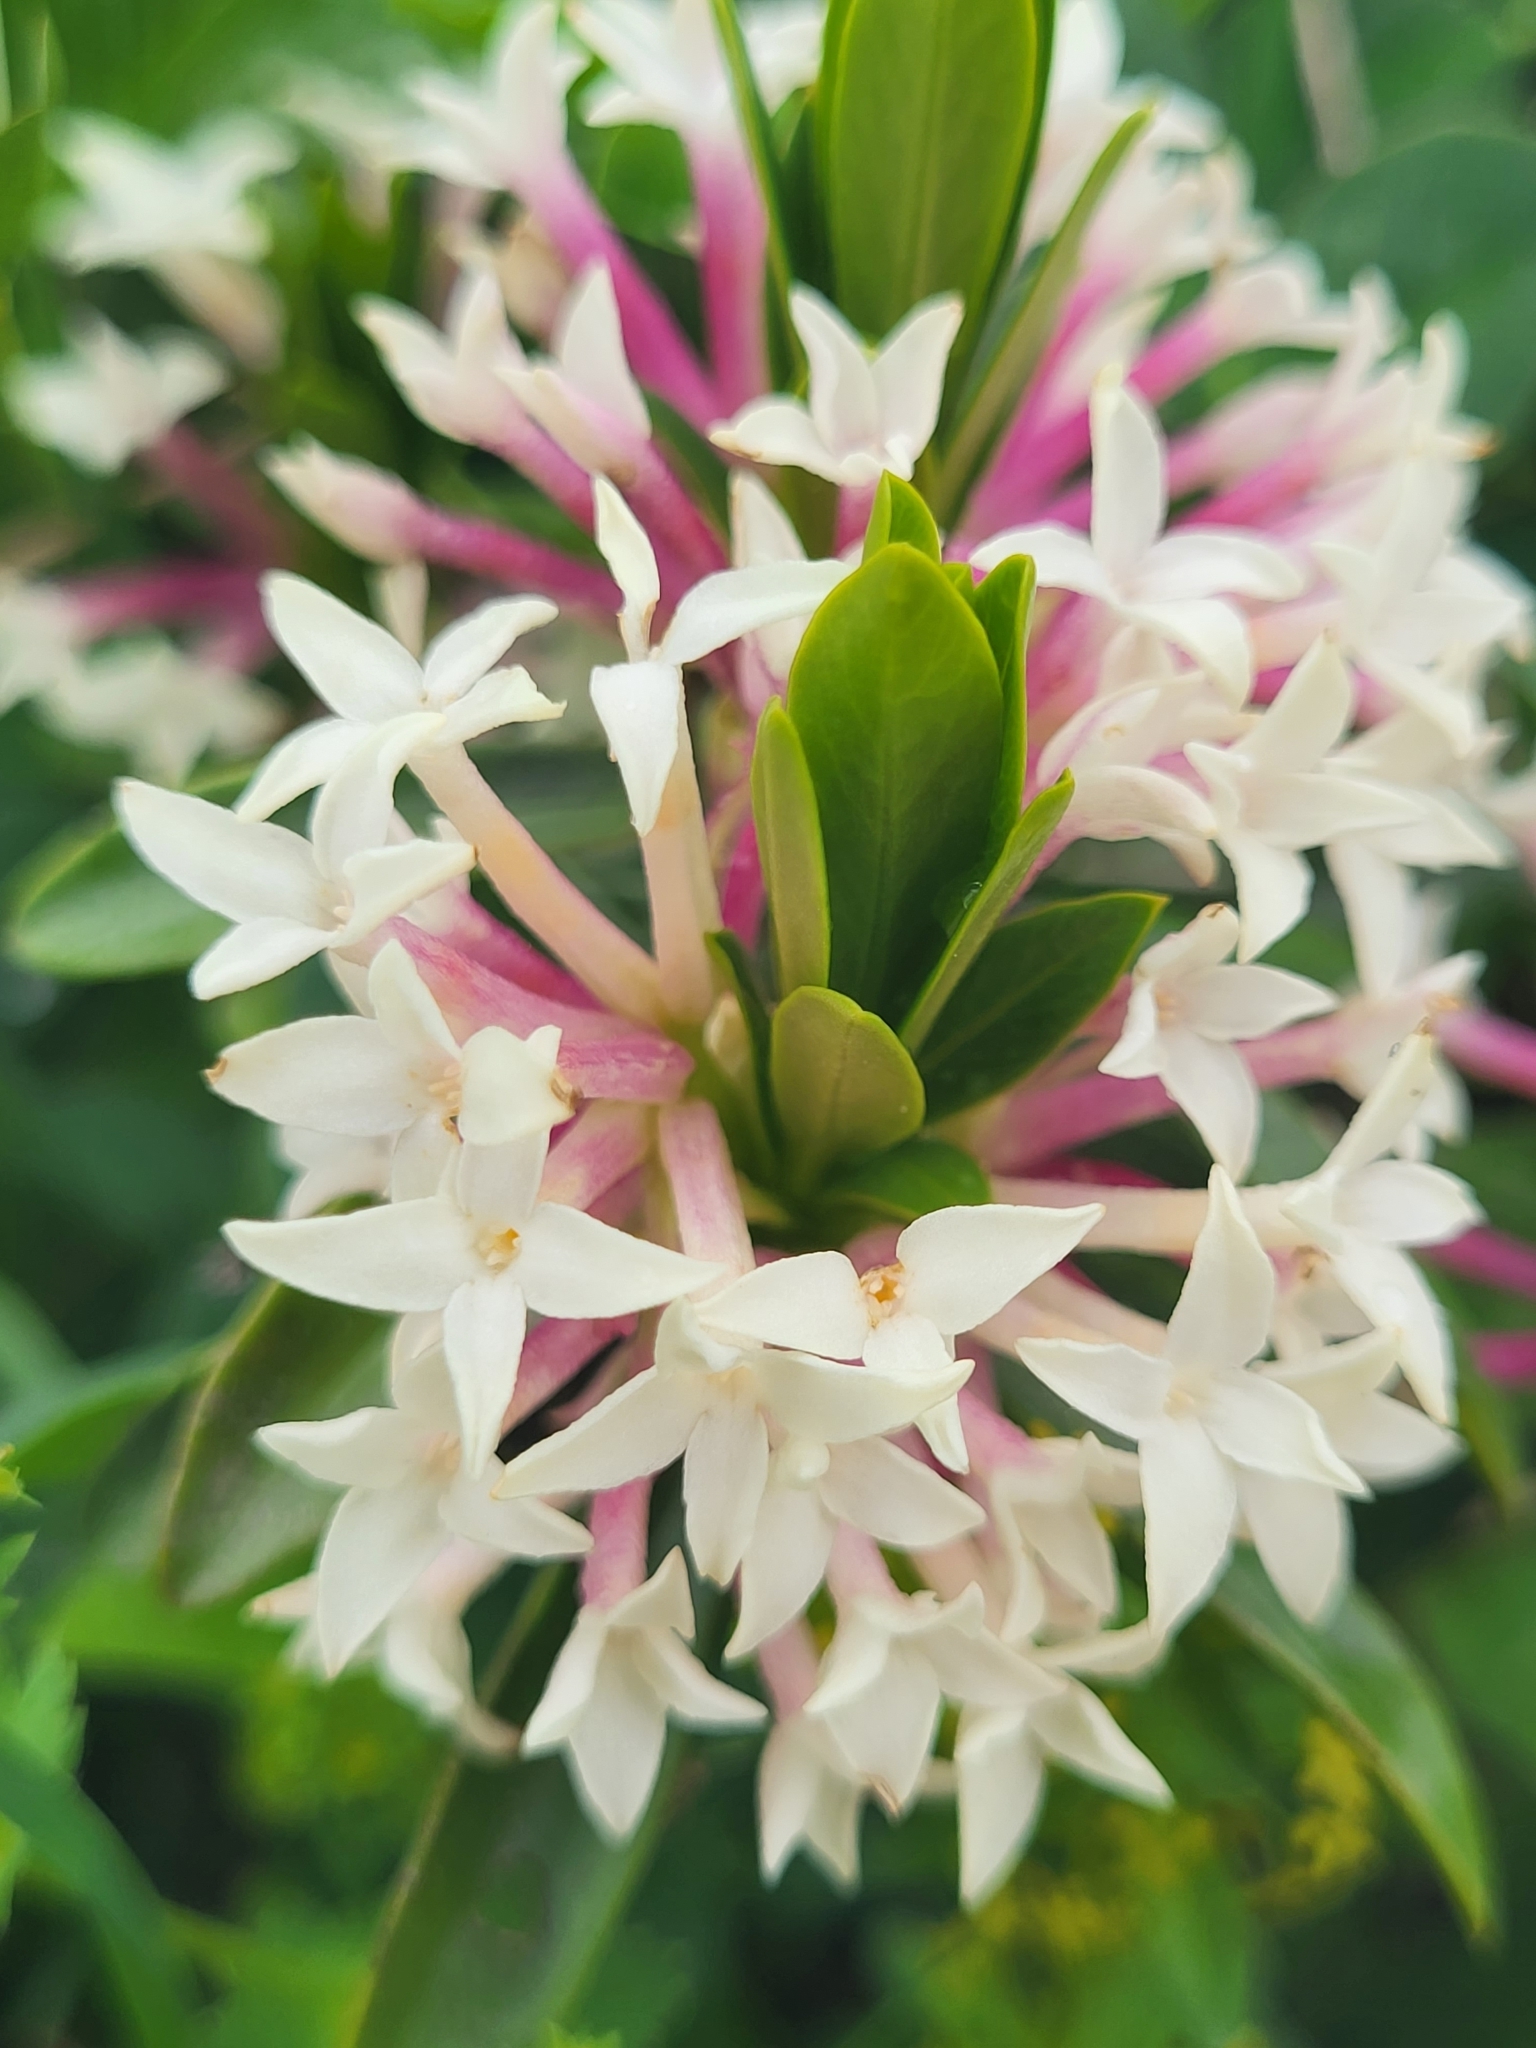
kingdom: Plantae
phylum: Tracheophyta
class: Magnoliopsida
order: Malvales
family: Thymelaeaceae
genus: Daphne
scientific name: Daphne glomerata
